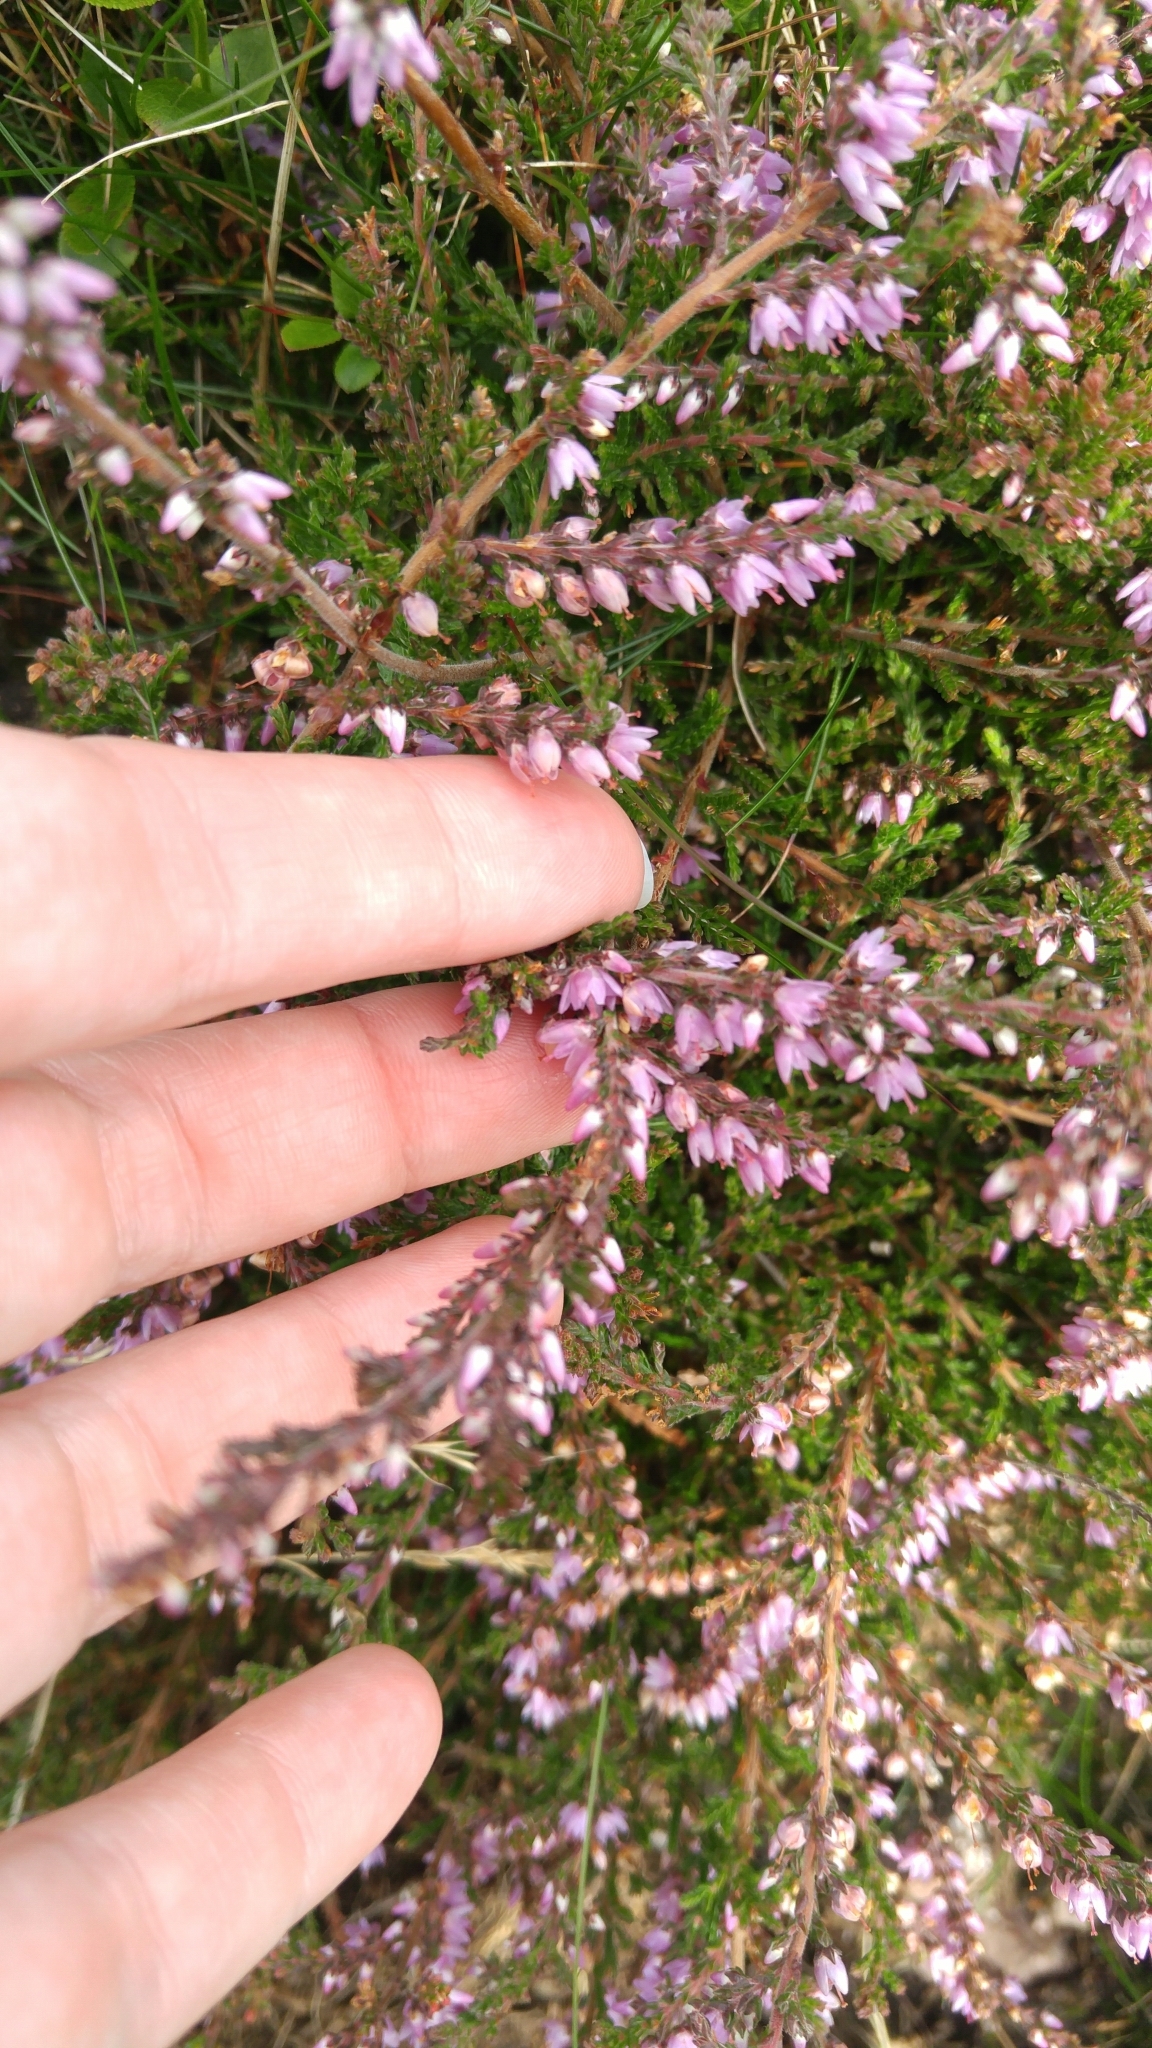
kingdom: Plantae
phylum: Tracheophyta
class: Magnoliopsida
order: Ericales
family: Ericaceae
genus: Calluna
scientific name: Calluna vulgaris
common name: Heather
